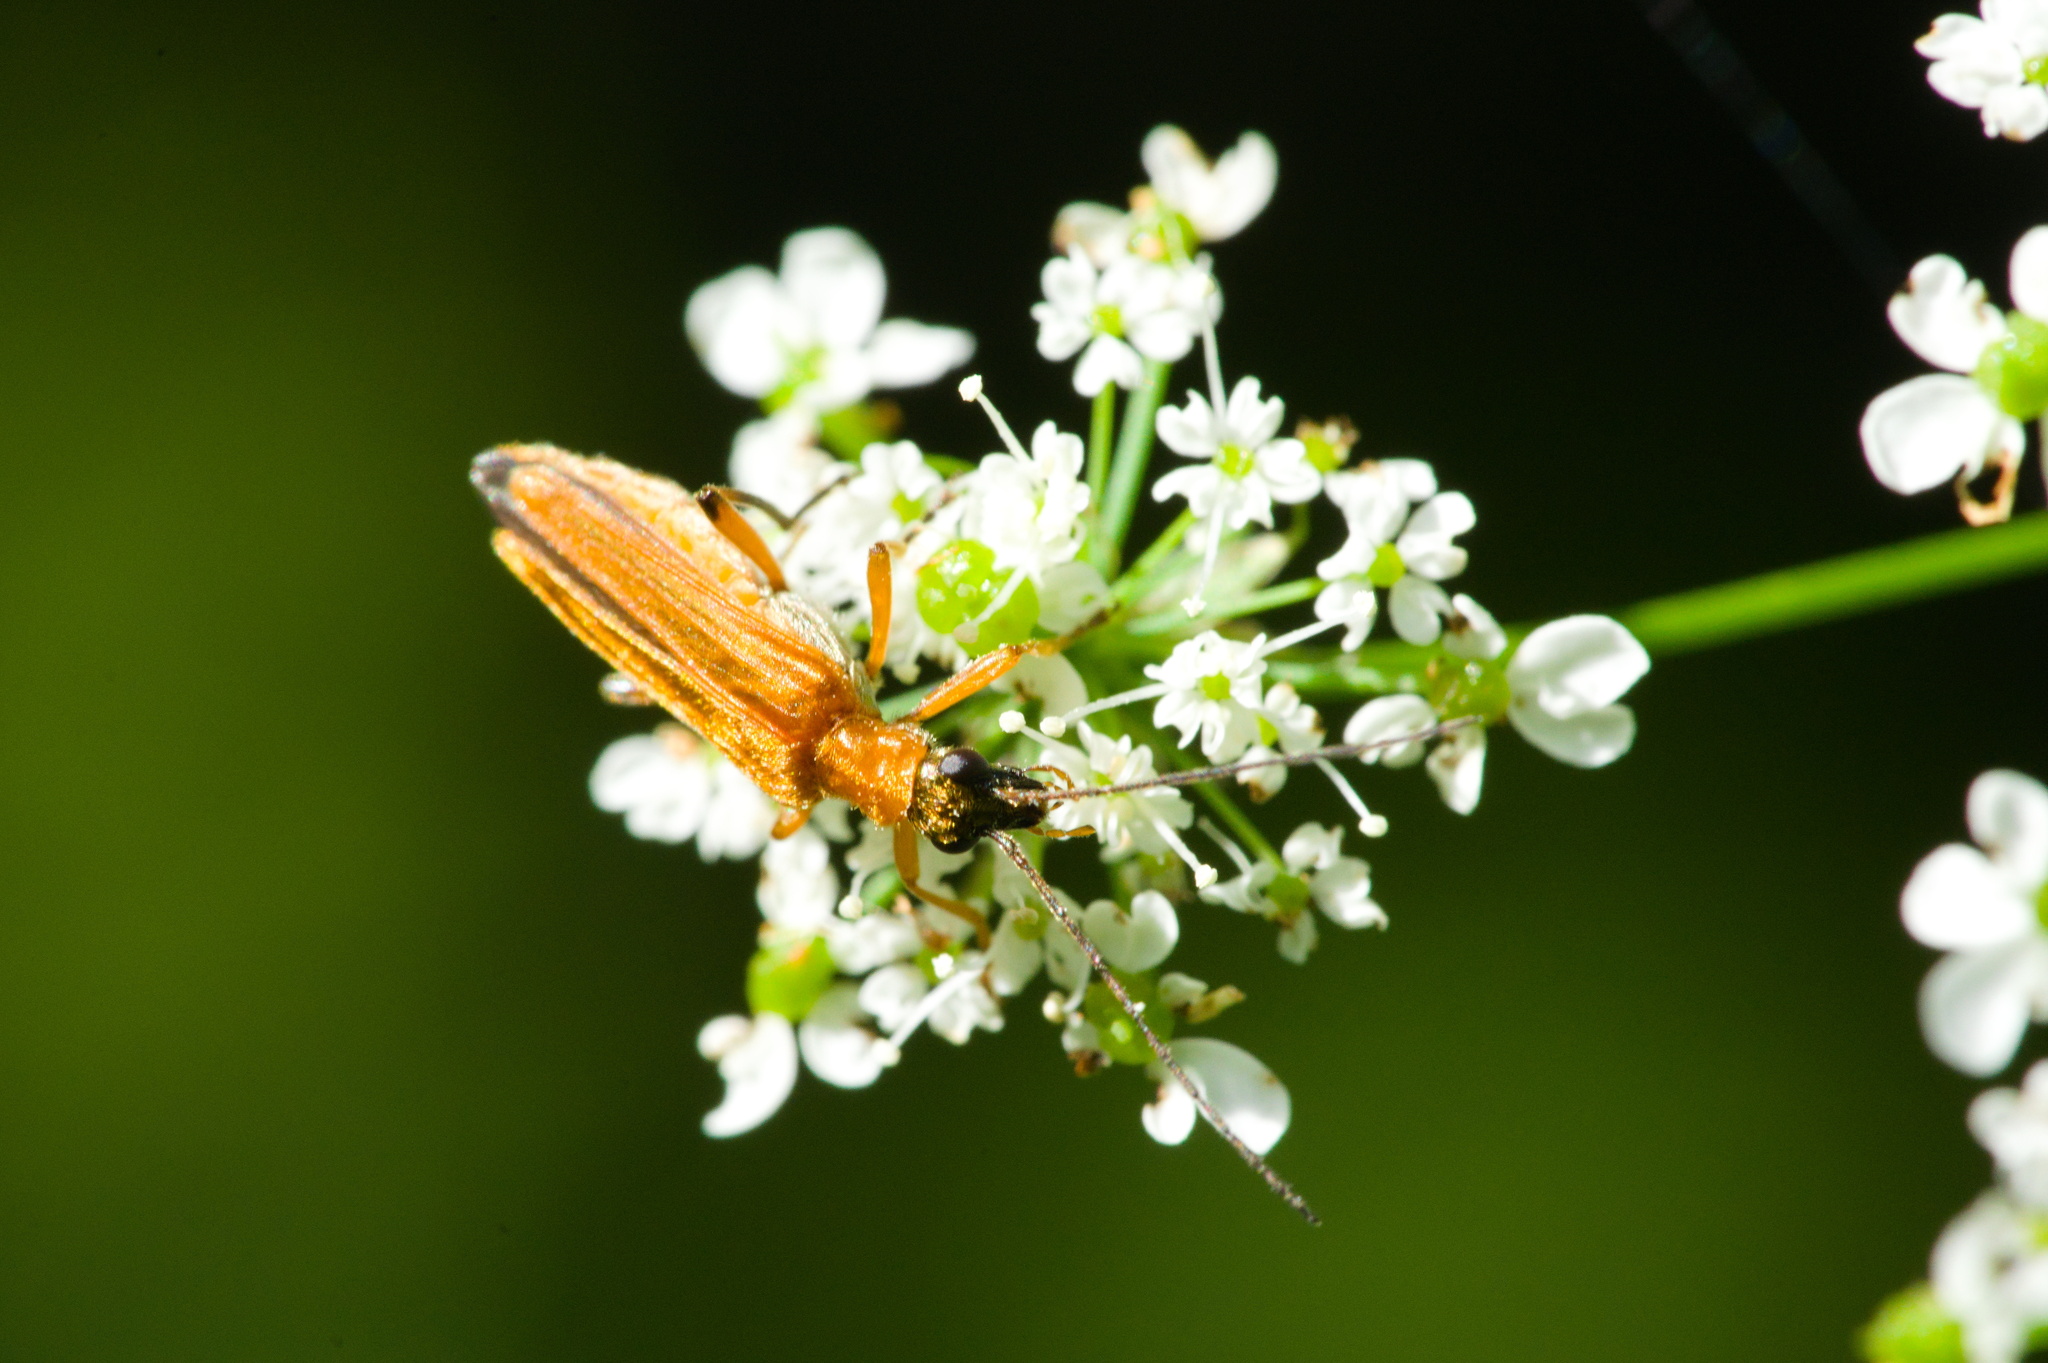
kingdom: Animalia
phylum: Arthropoda
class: Insecta
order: Coleoptera
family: Oedemeridae
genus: Oedemera
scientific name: Oedemera podagrariae
